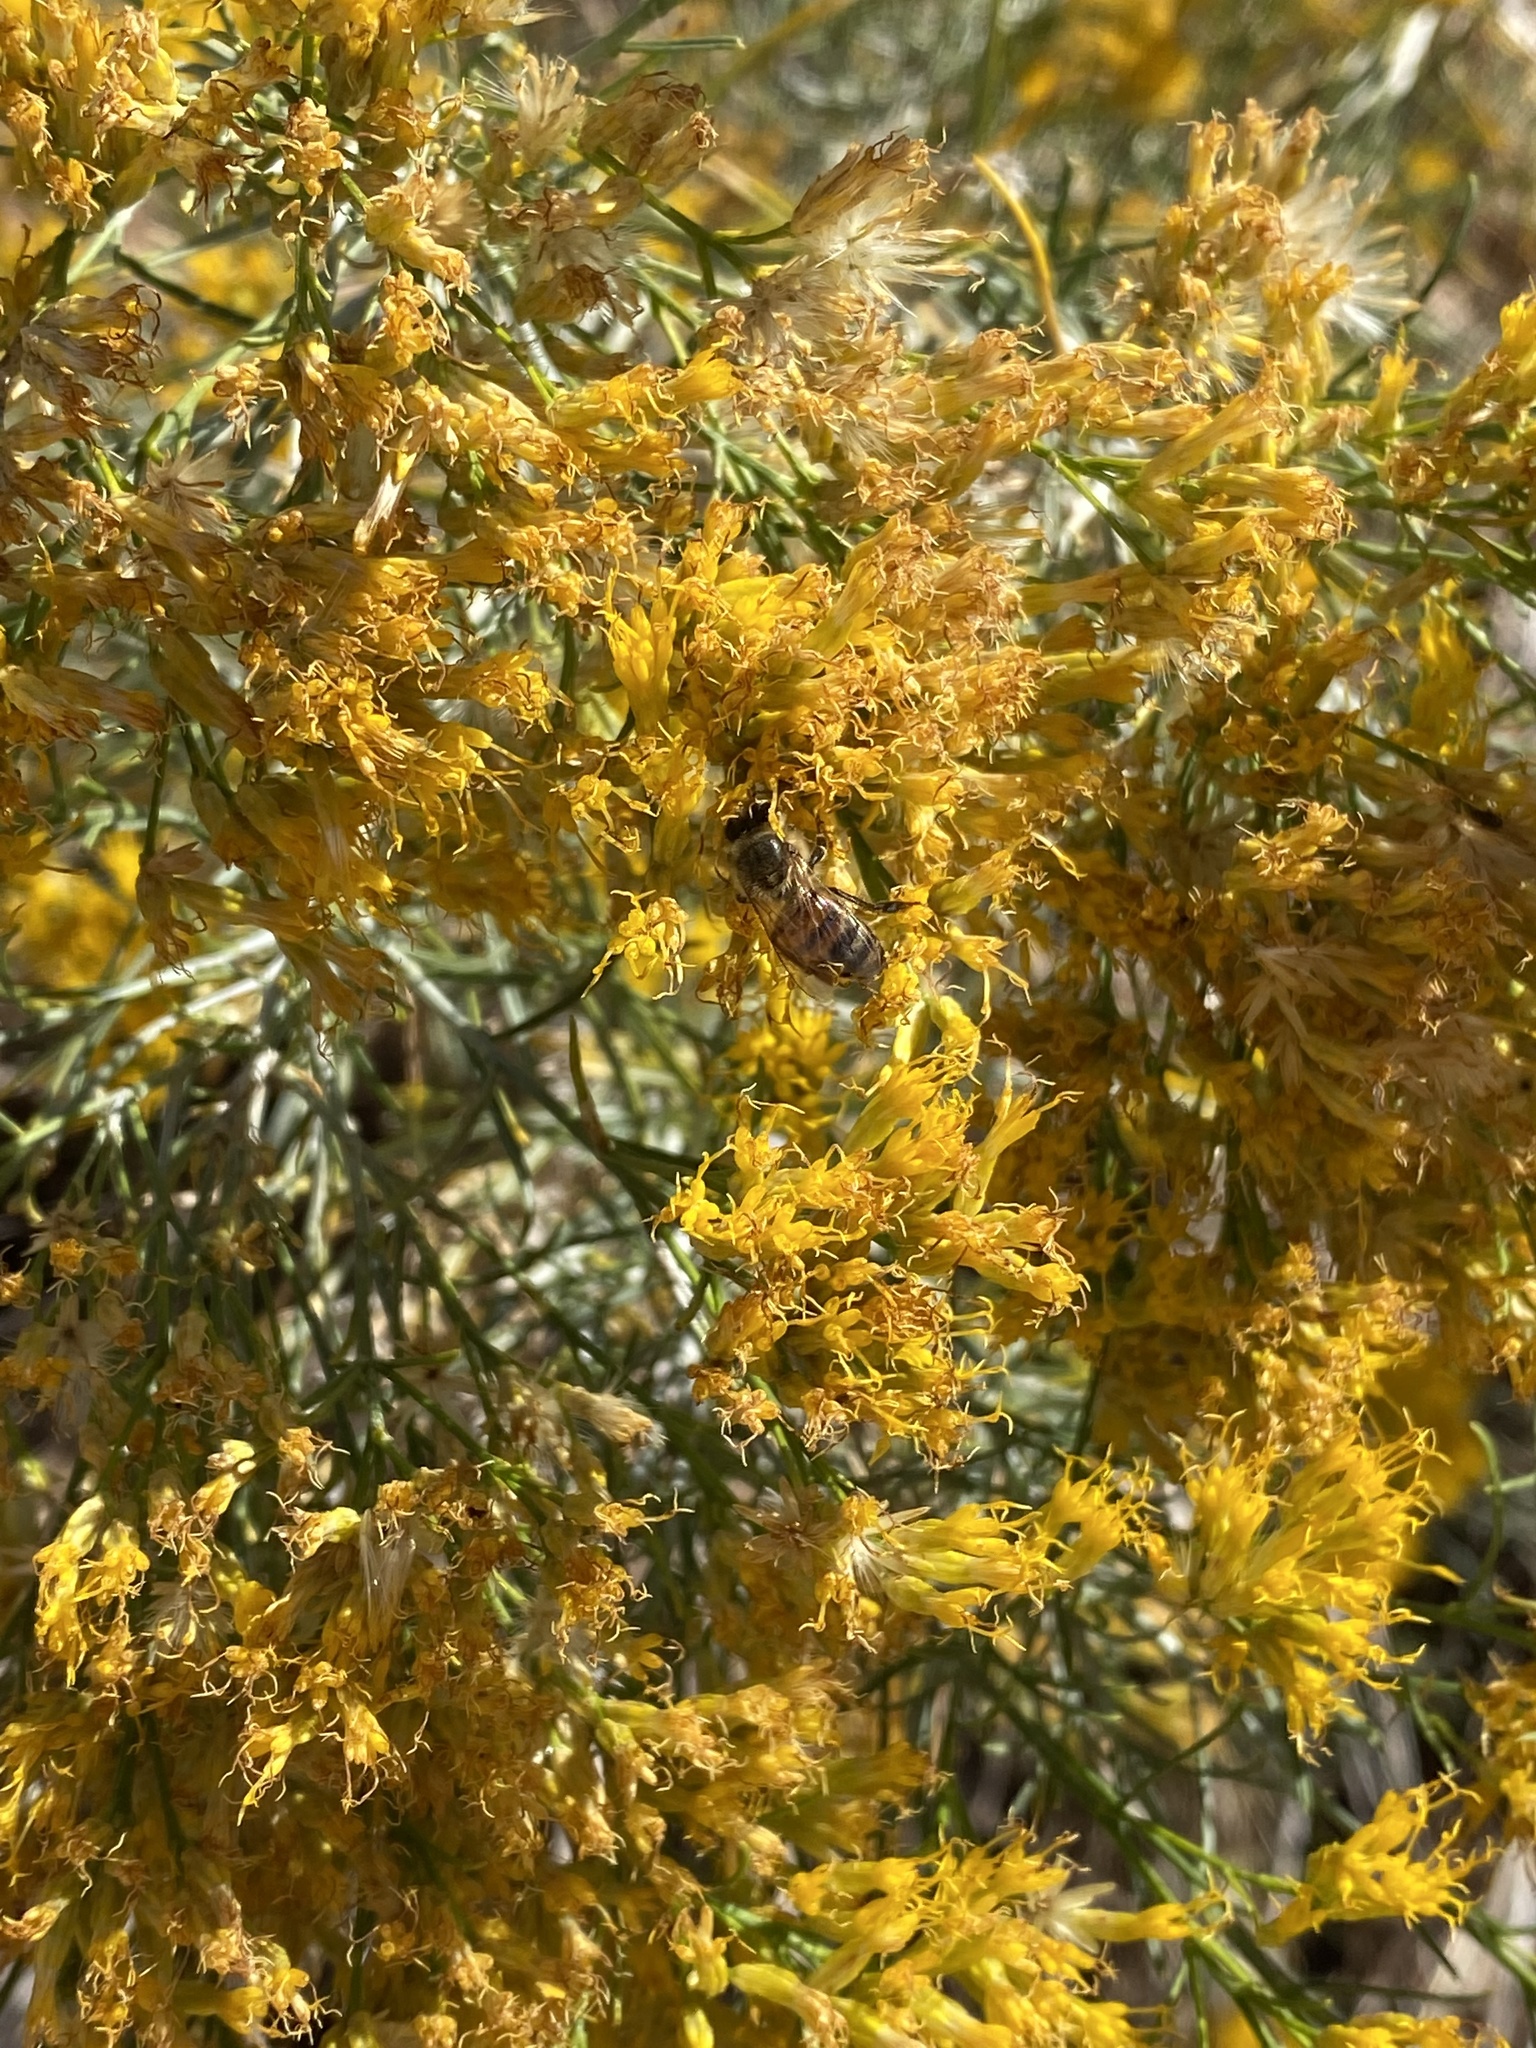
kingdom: Animalia
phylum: Arthropoda
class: Insecta
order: Hymenoptera
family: Apidae
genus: Apis
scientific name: Apis mellifera
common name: Honey bee
